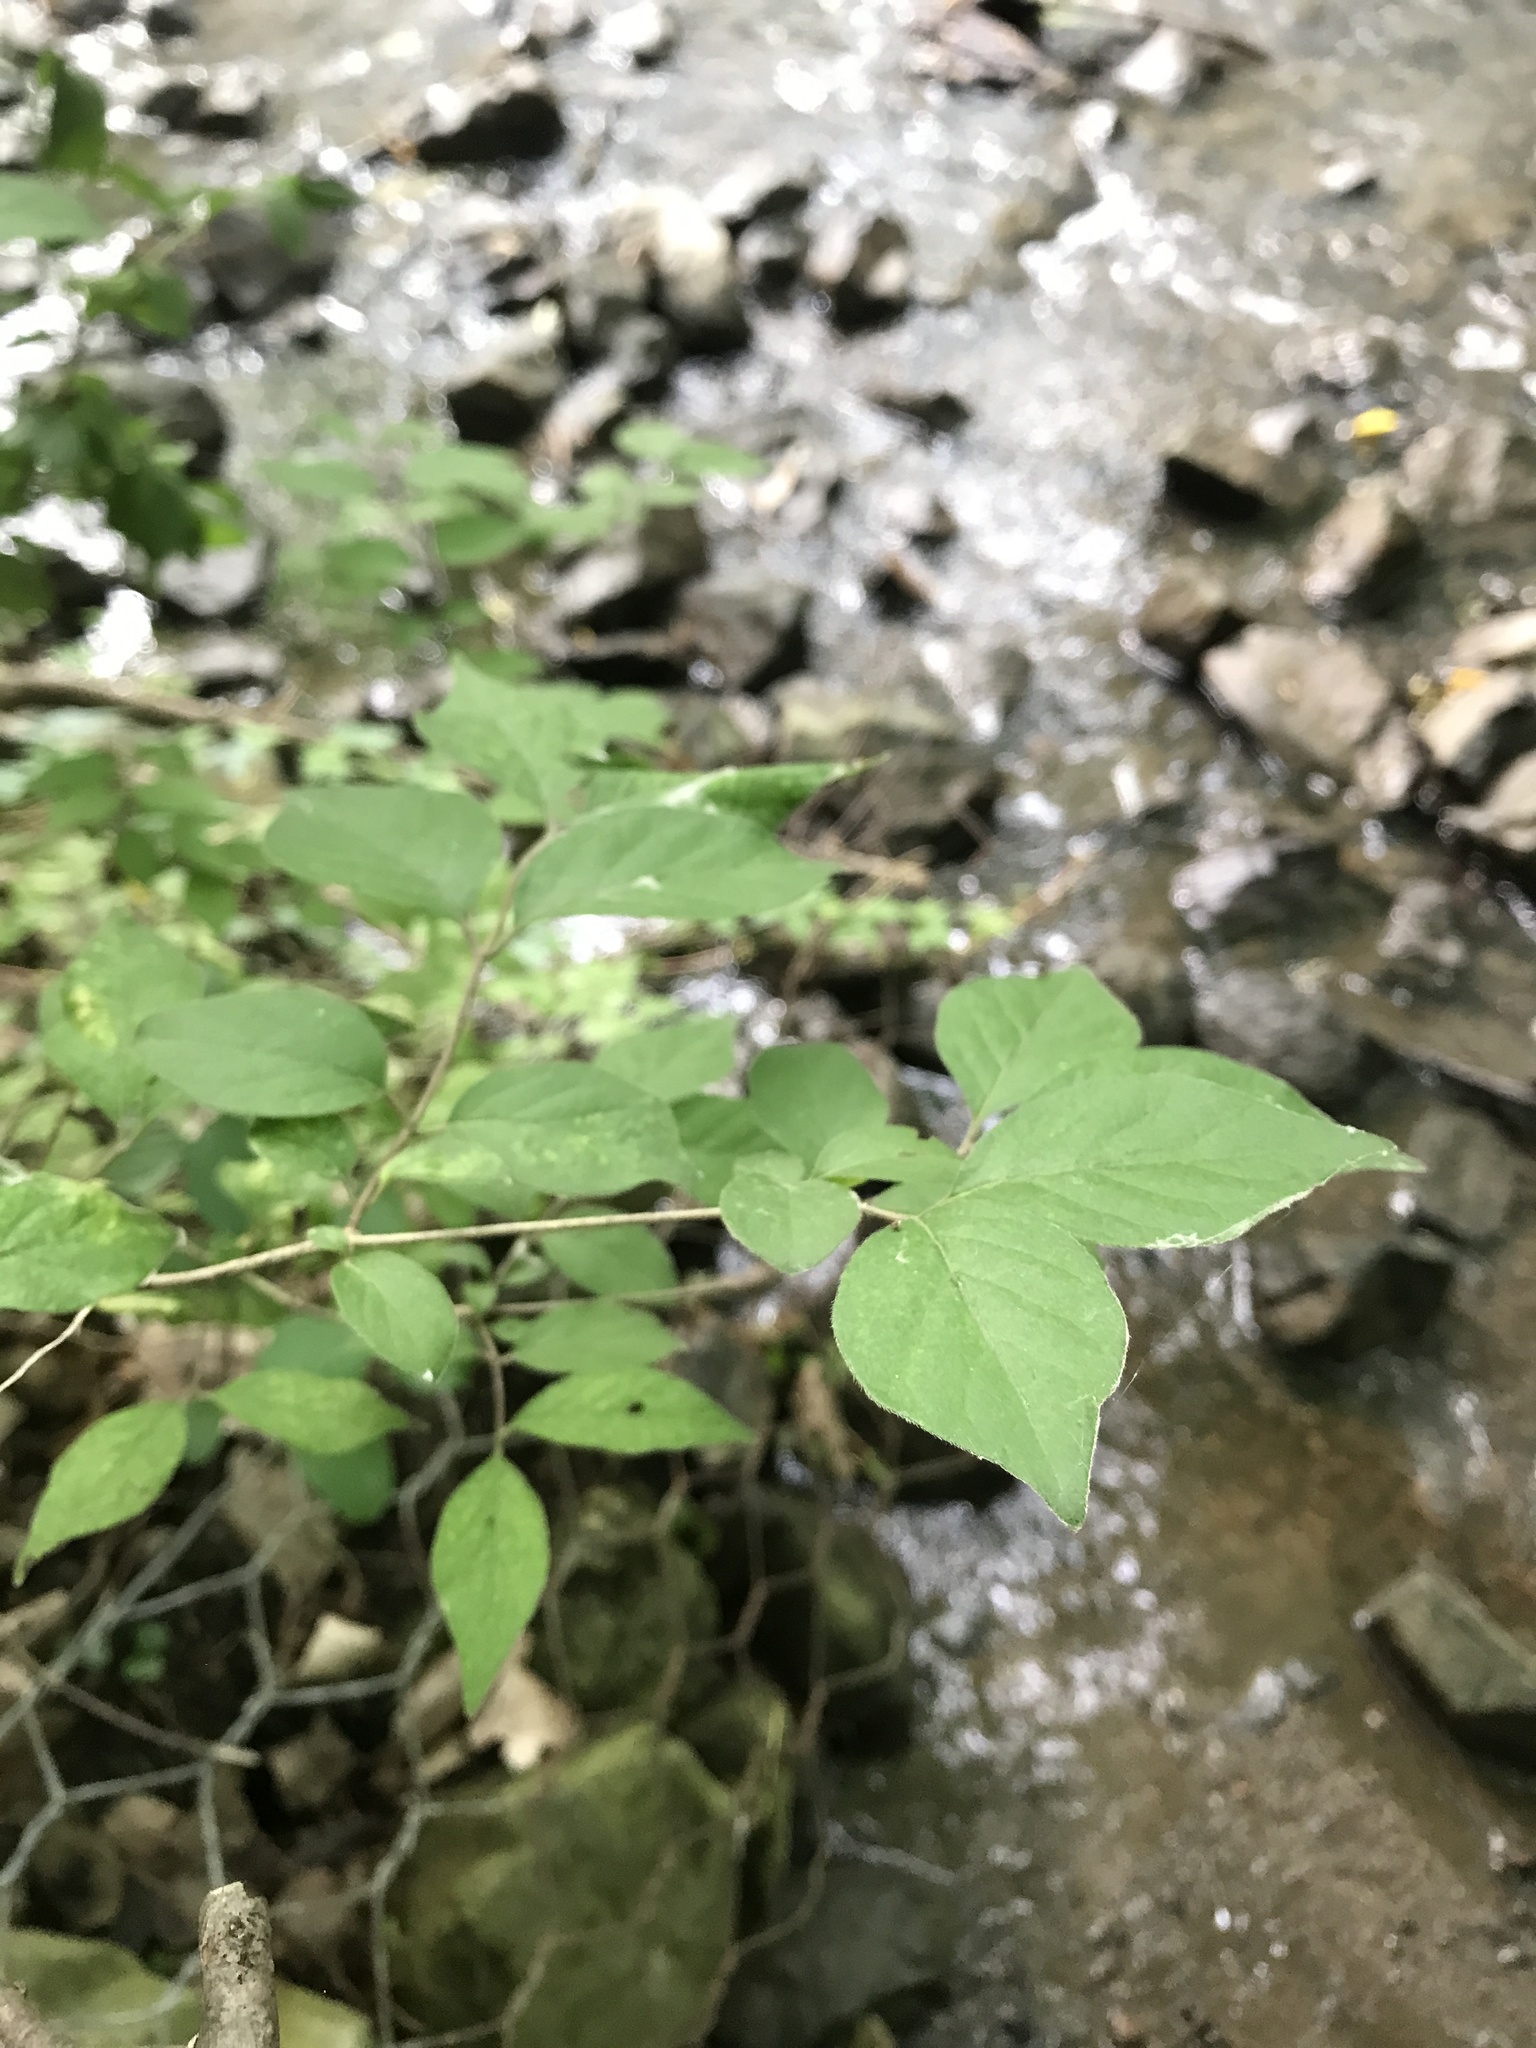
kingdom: Plantae
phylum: Tracheophyta
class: Magnoliopsida
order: Sapindales
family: Sapindaceae
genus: Acer
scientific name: Acer negundo
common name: Ashleaf maple
